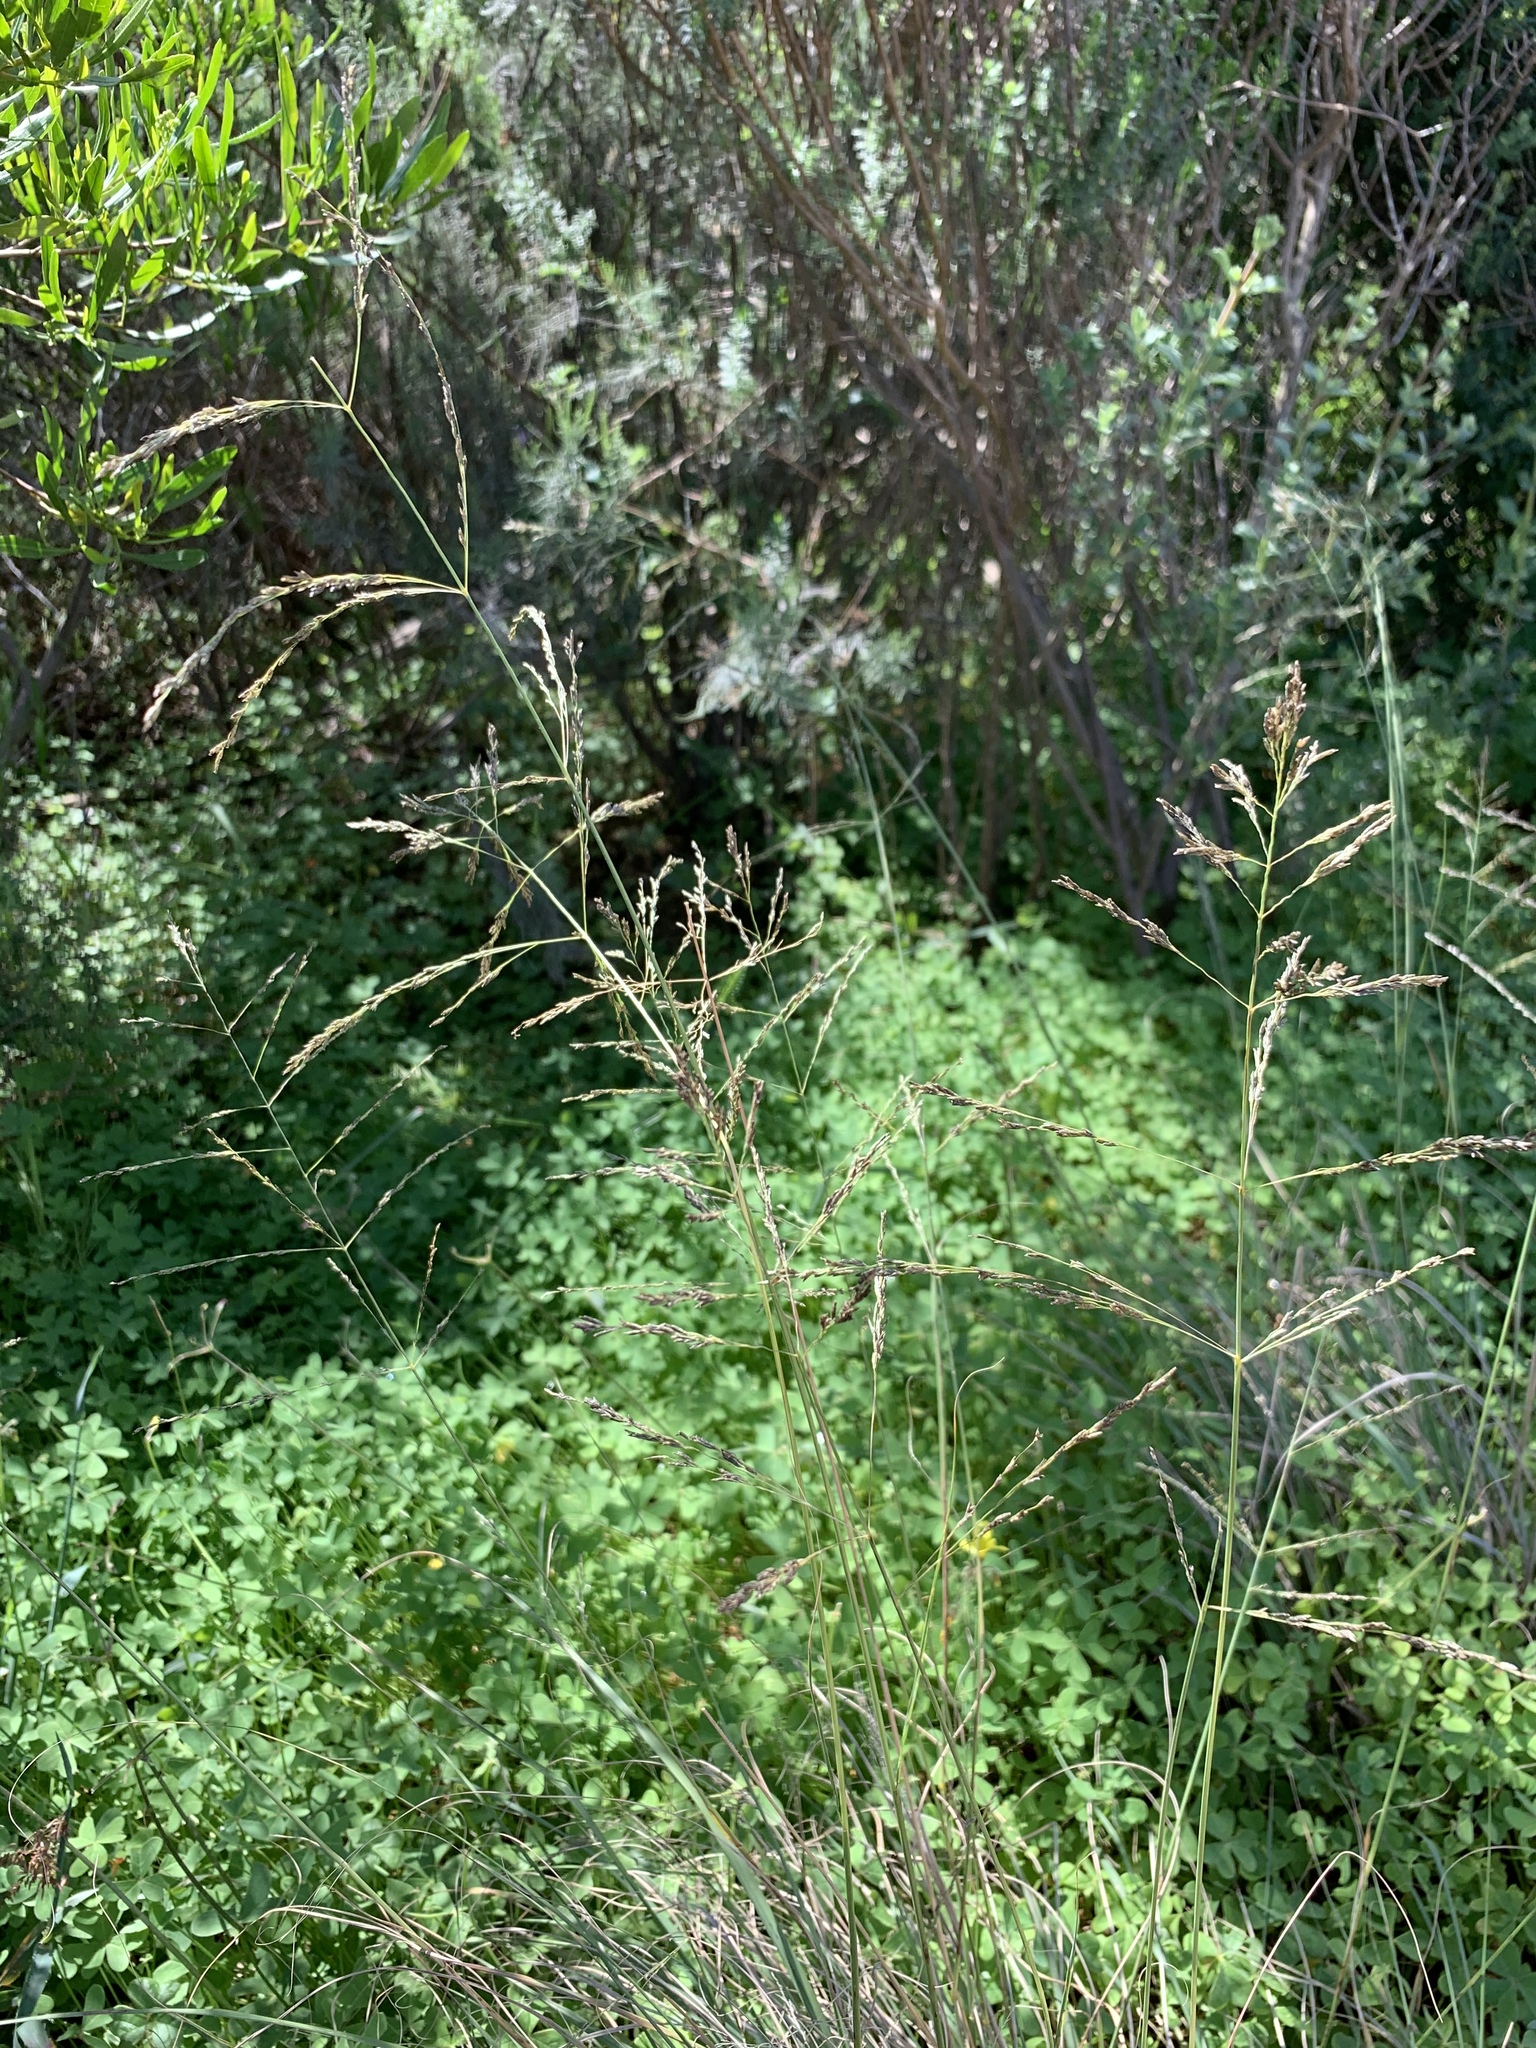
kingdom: Plantae
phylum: Tracheophyta
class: Liliopsida
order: Poales
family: Poaceae
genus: Eragrostis
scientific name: Eragrostis curvula
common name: African love-grass
